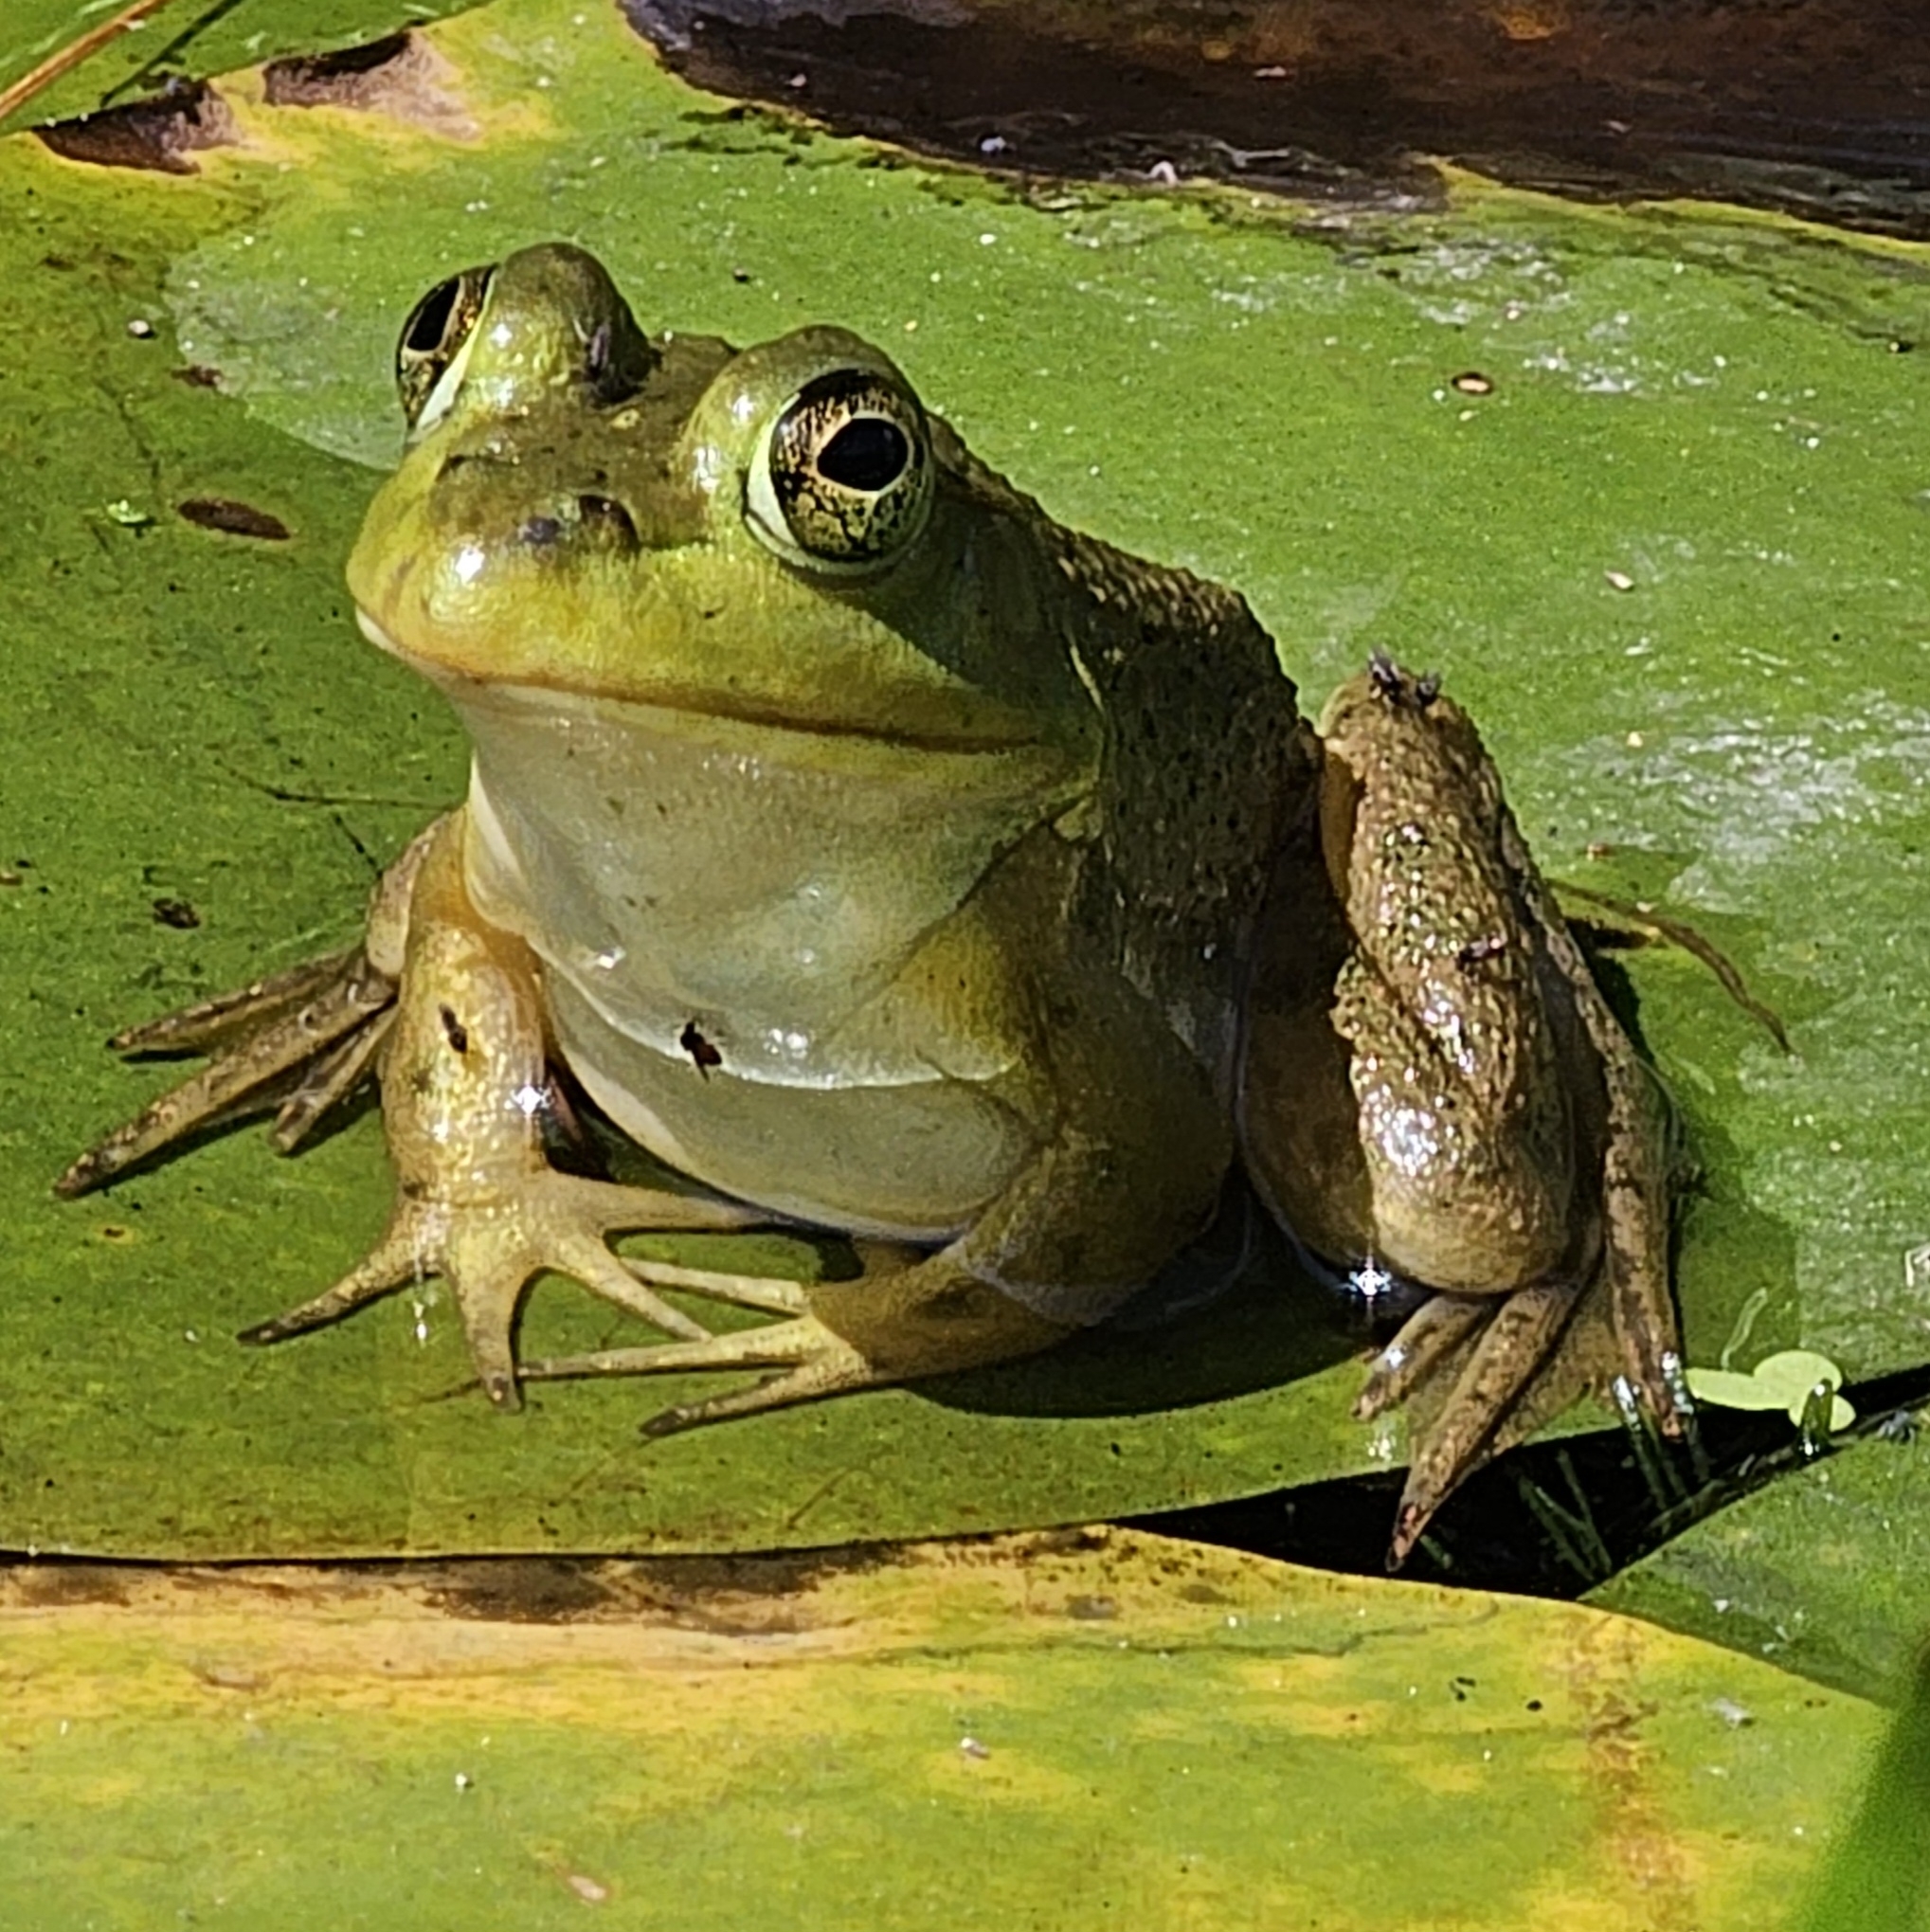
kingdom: Animalia
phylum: Chordata
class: Amphibia
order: Anura
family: Ranidae
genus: Lithobates
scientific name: Lithobates catesbeianus
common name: American bullfrog
